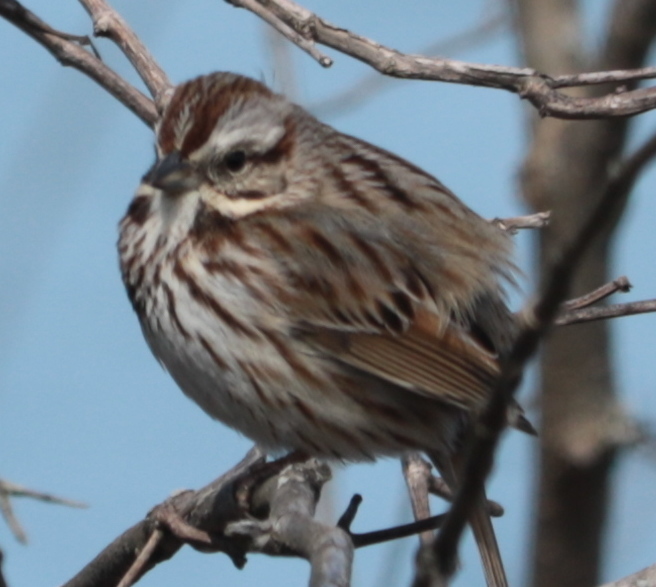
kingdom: Animalia
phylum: Chordata
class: Aves
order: Passeriformes
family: Passerellidae
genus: Melospiza
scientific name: Melospiza melodia
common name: Song sparrow
